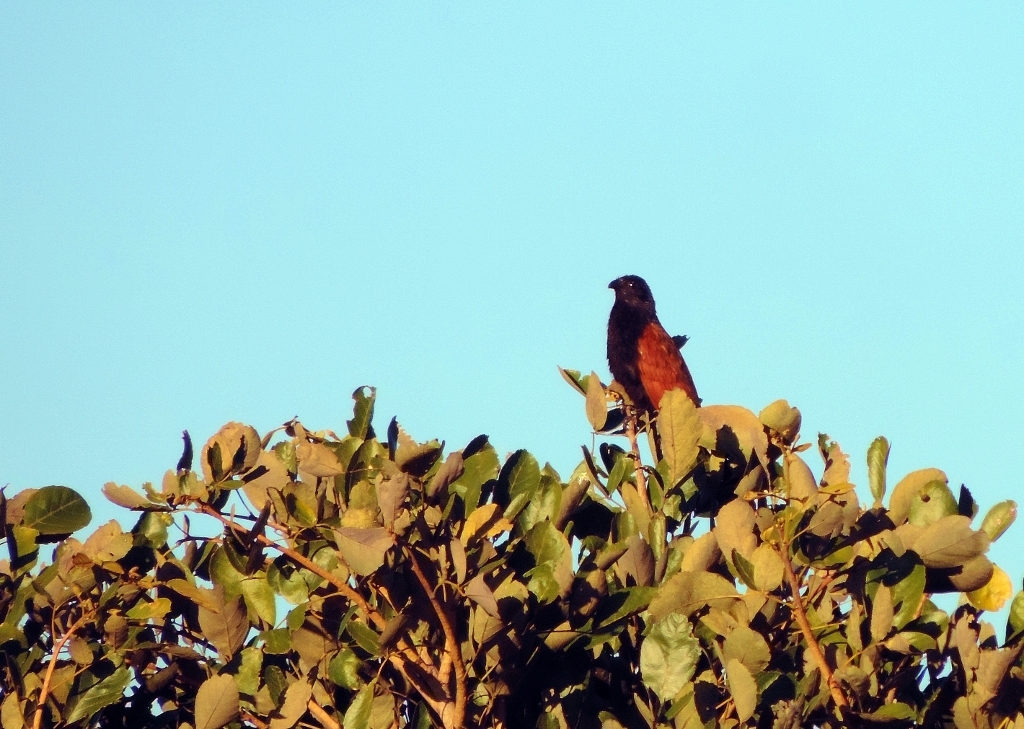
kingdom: Animalia
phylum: Chordata
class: Aves
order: Cuculiformes
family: Cuculidae
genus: Centropus
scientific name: Centropus grillii
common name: Black coucal
